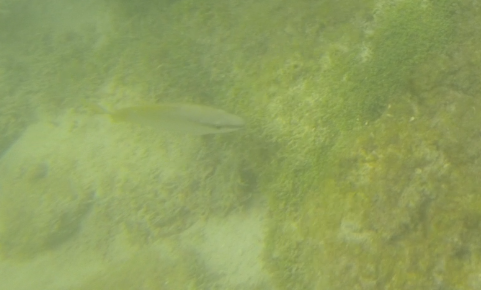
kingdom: Animalia
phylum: Chordata
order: Perciformes
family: Lutjanidae
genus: Lutjanus
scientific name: Lutjanus argentiventris
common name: Yellow snapper
